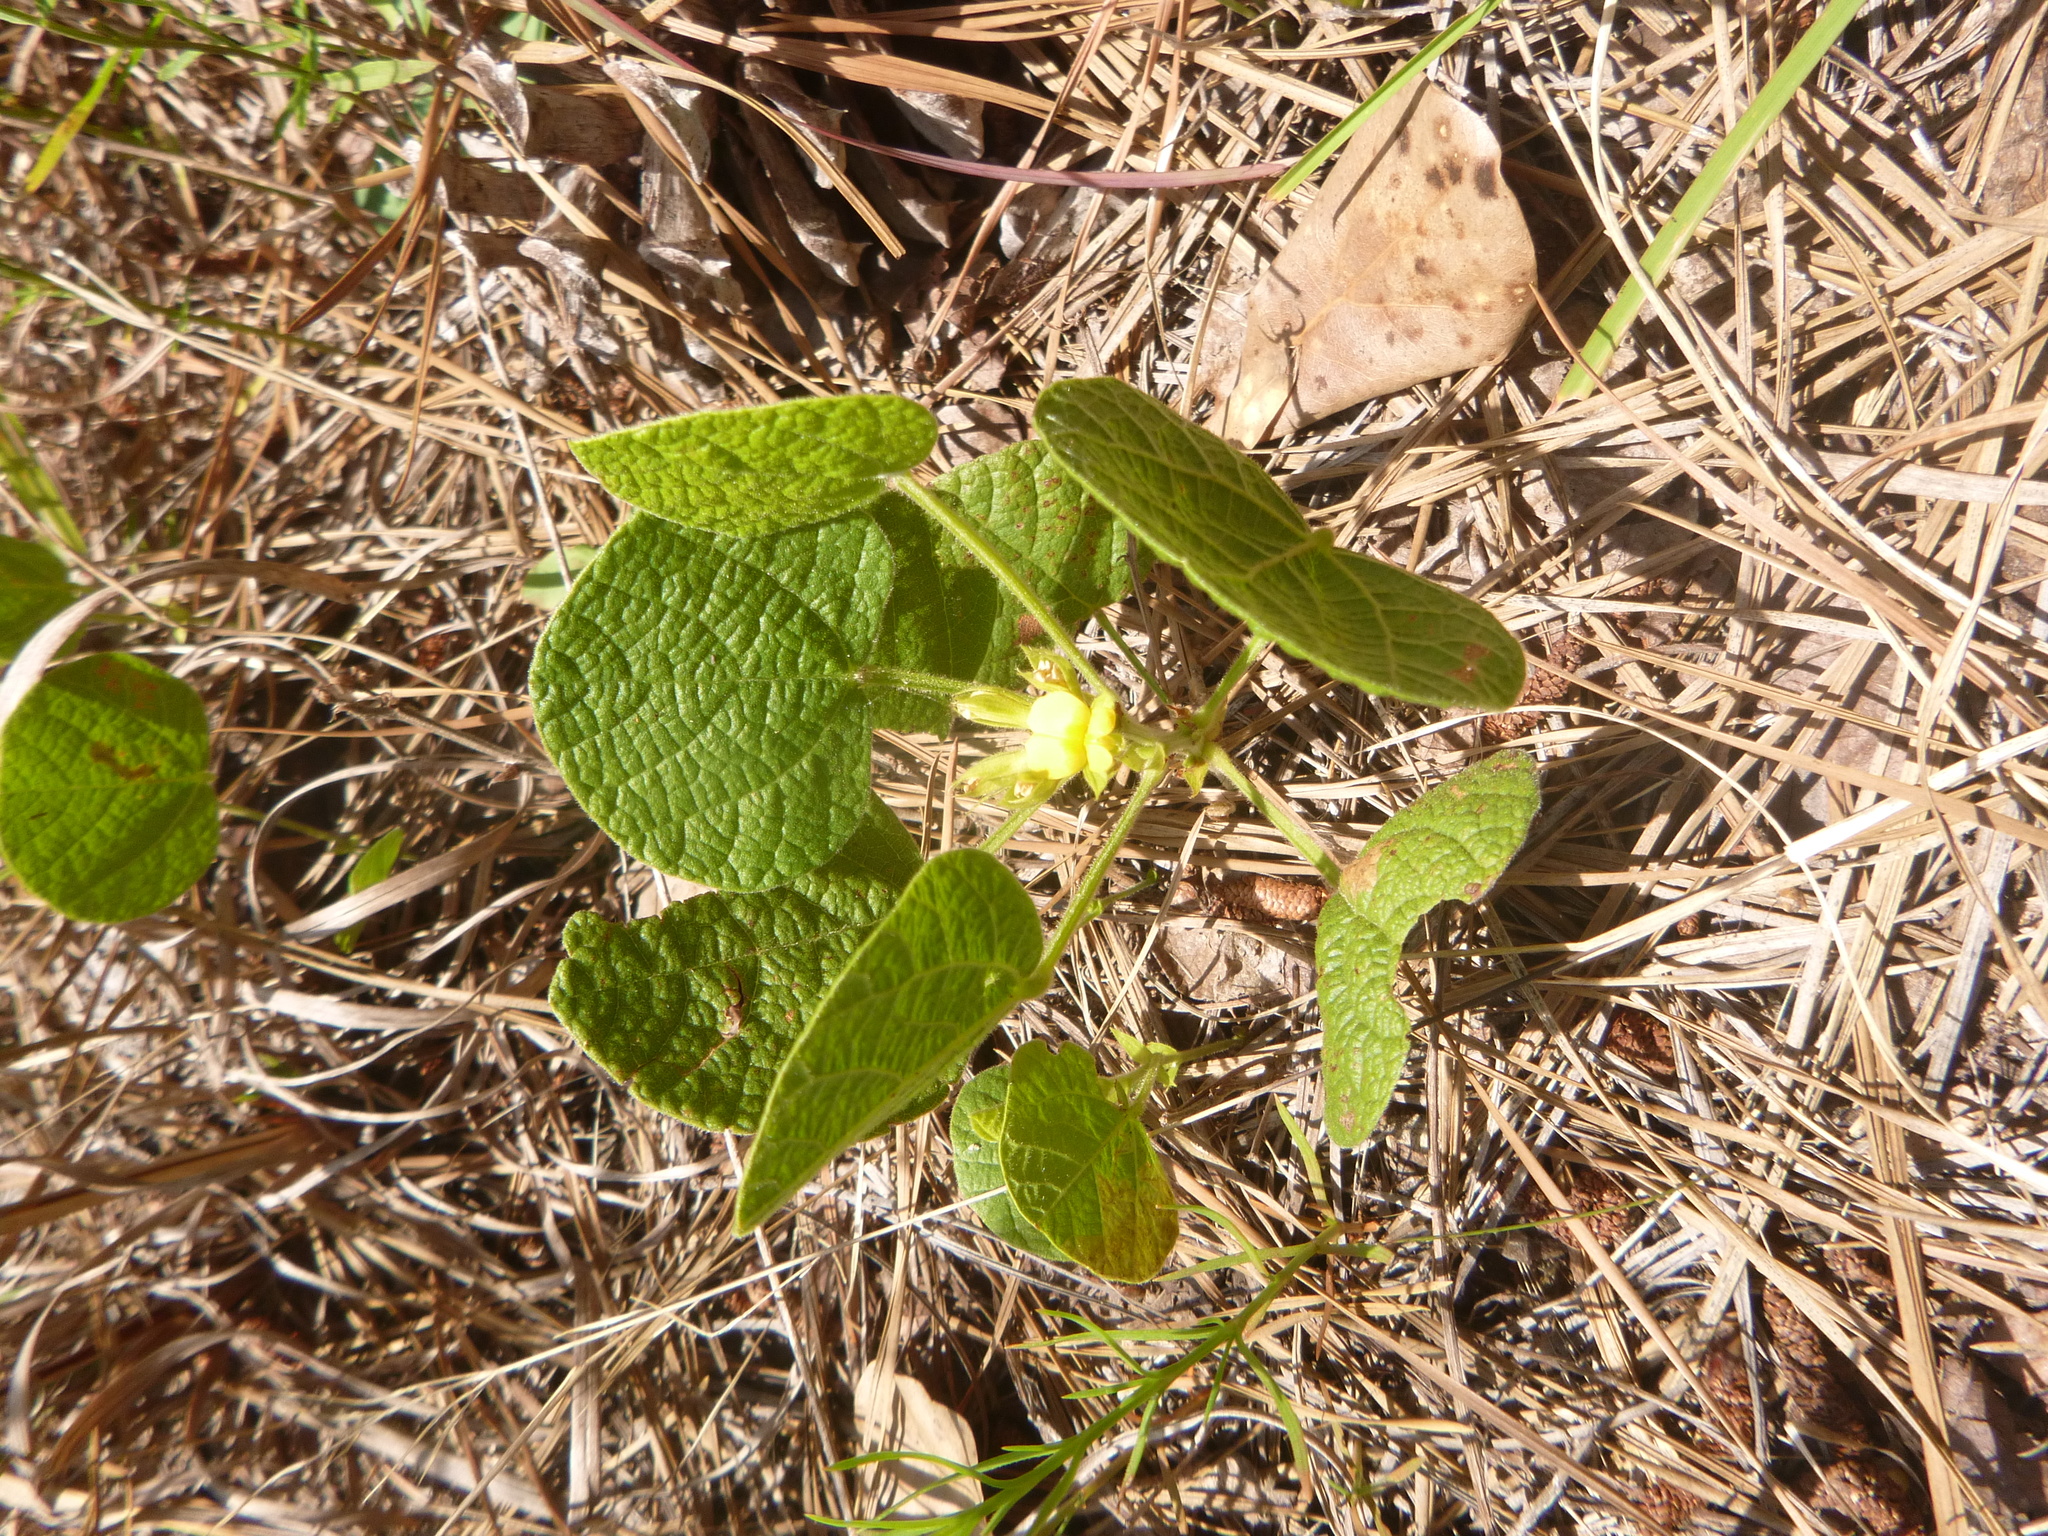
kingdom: Plantae
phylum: Tracheophyta
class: Magnoliopsida
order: Fabales
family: Fabaceae
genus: Rhynchosia
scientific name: Rhynchosia reniformis
